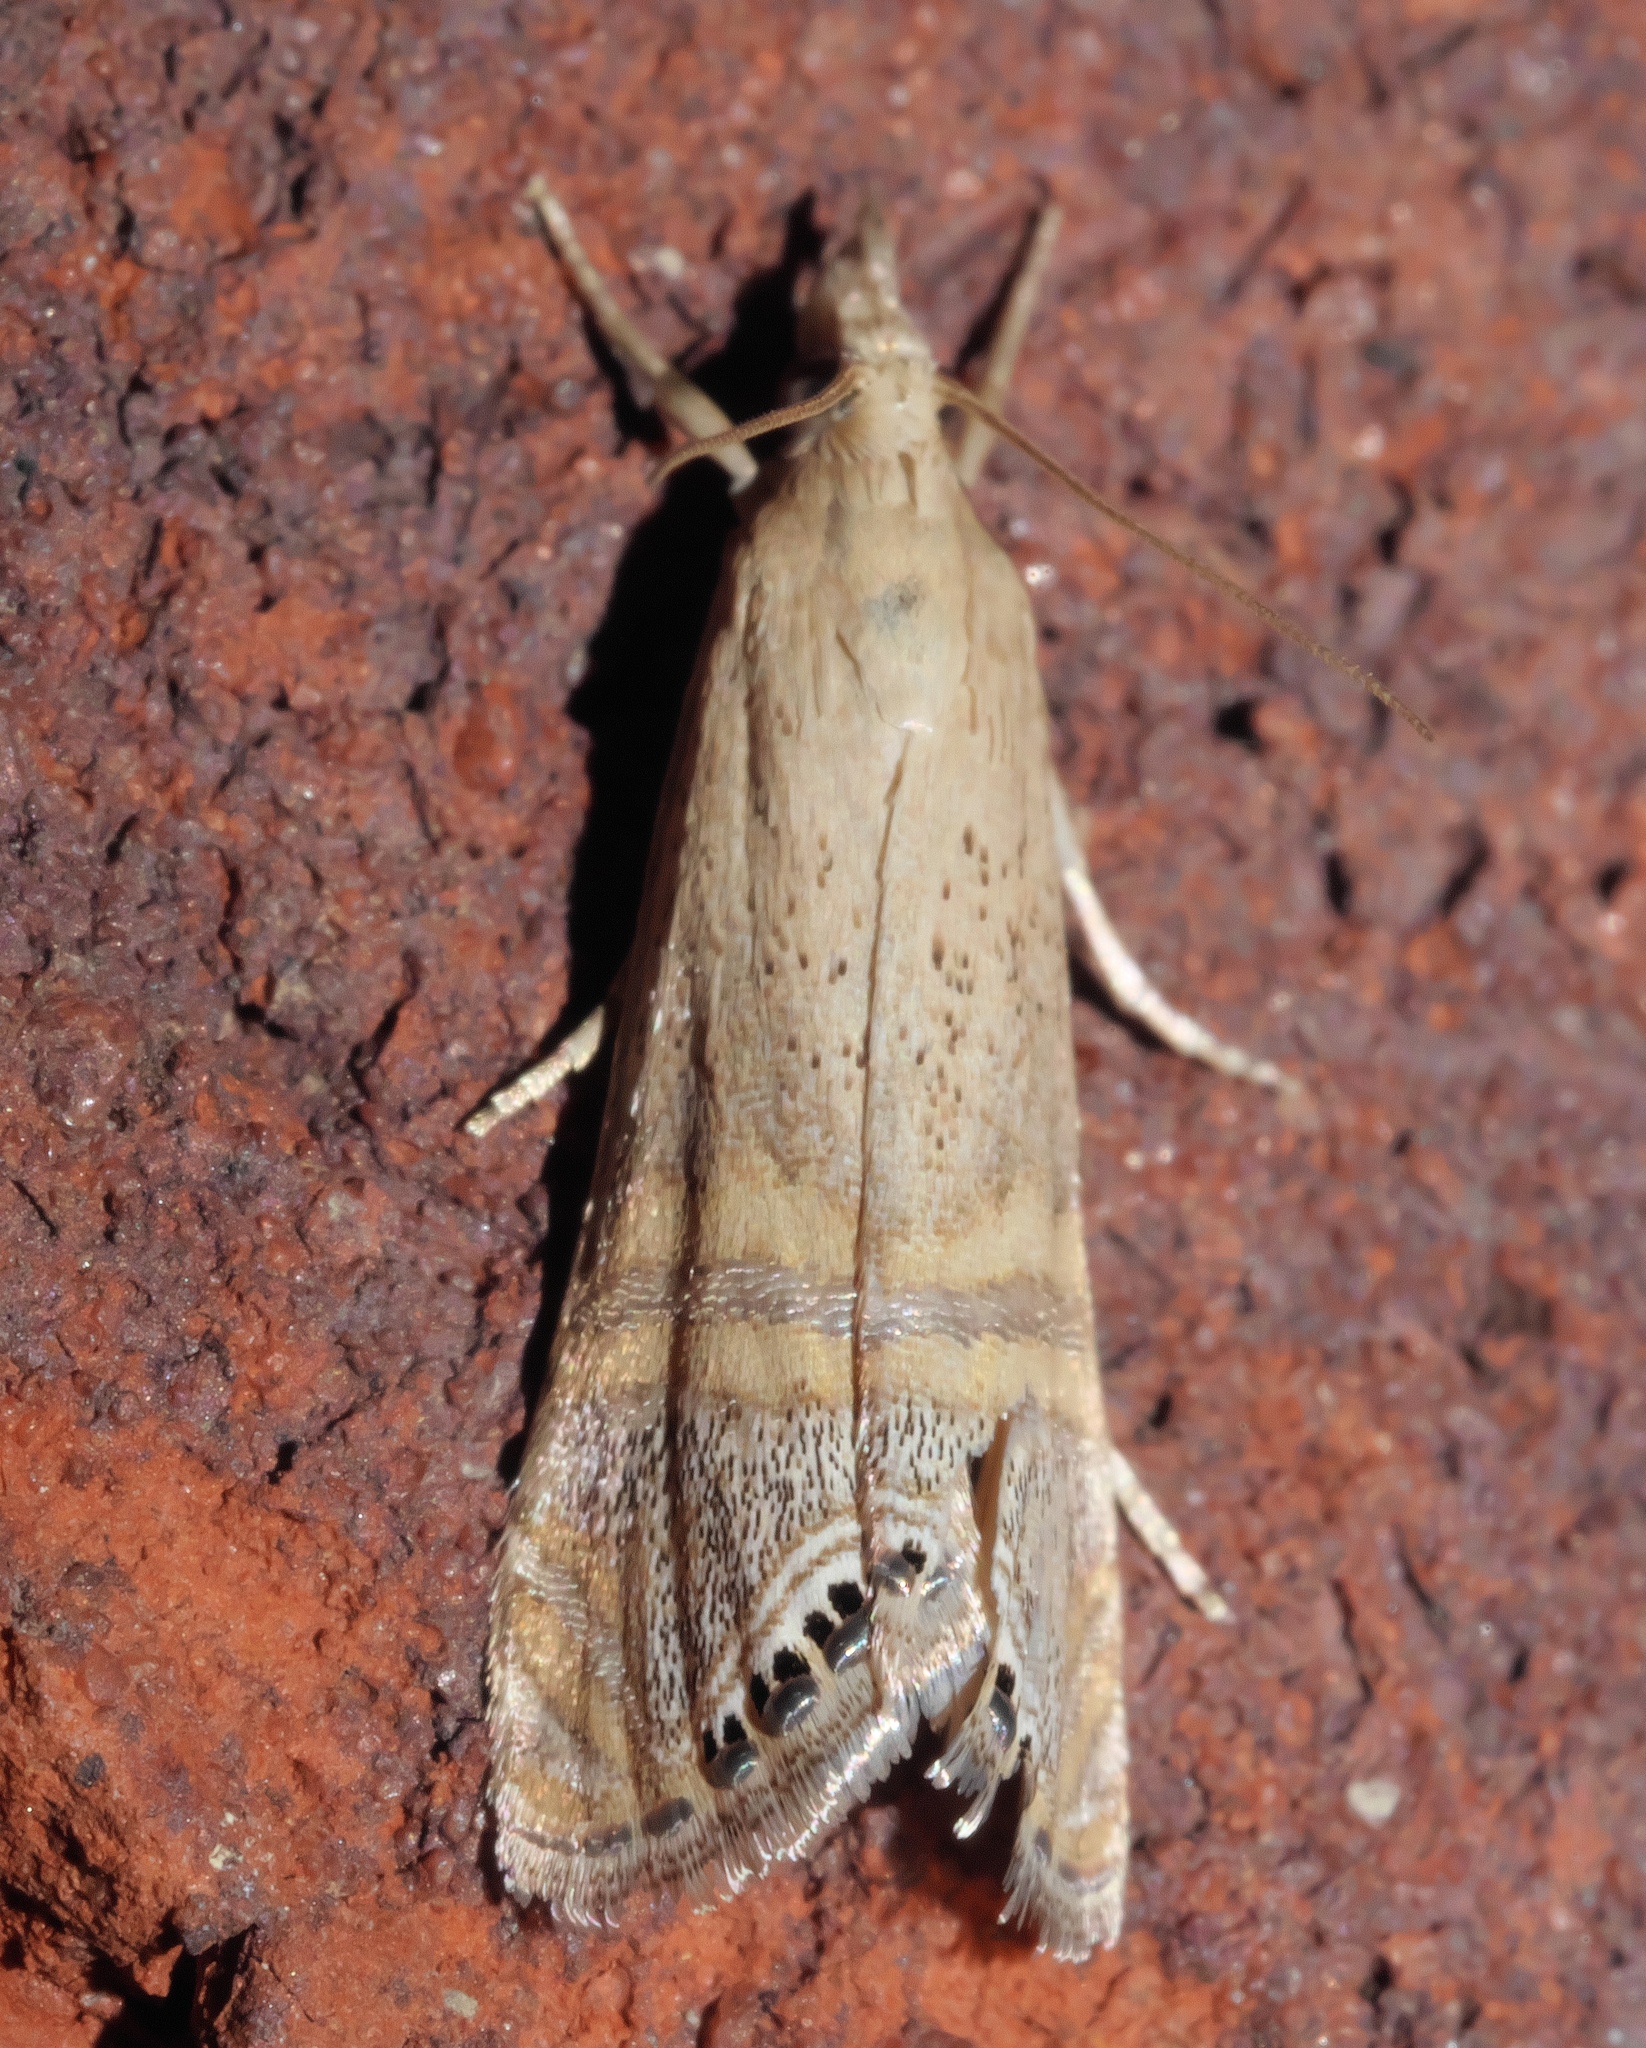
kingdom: Animalia
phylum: Arthropoda
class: Insecta
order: Lepidoptera
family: Crambidae
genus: Euchromius
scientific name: Euchromius ocellea
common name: Necklace veneer moth
